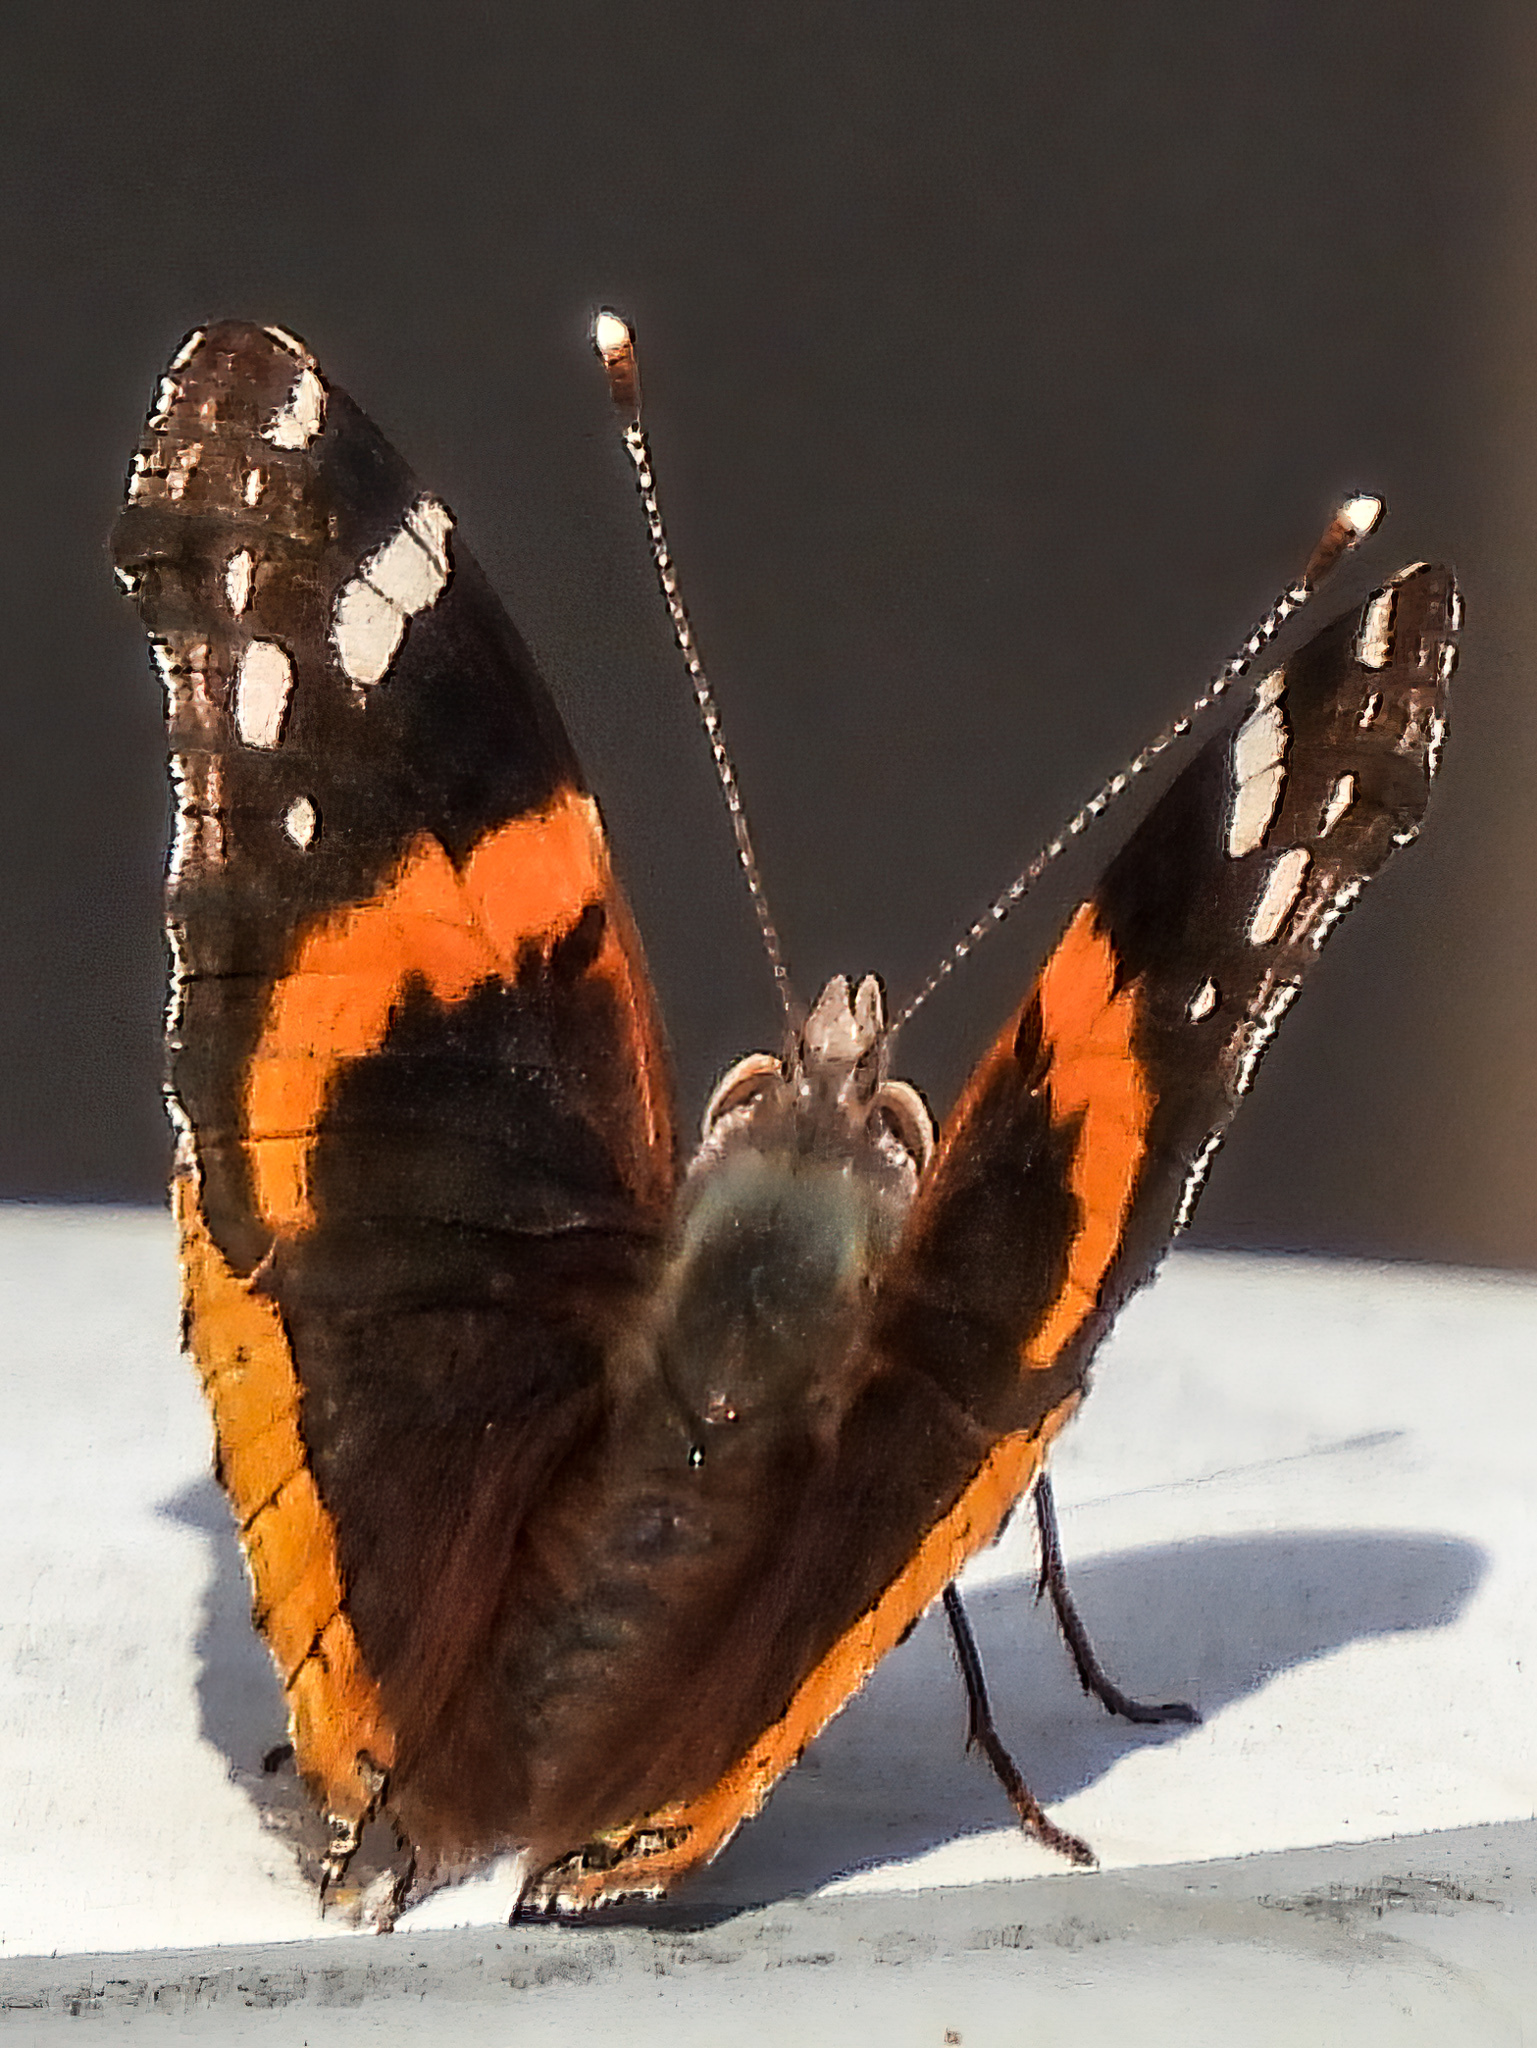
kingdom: Animalia
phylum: Arthropoda
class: Insecta
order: Lepidoptera
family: Nymphalidae
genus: Vanessa
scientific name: Vanessa atalanta
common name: Red admiral
